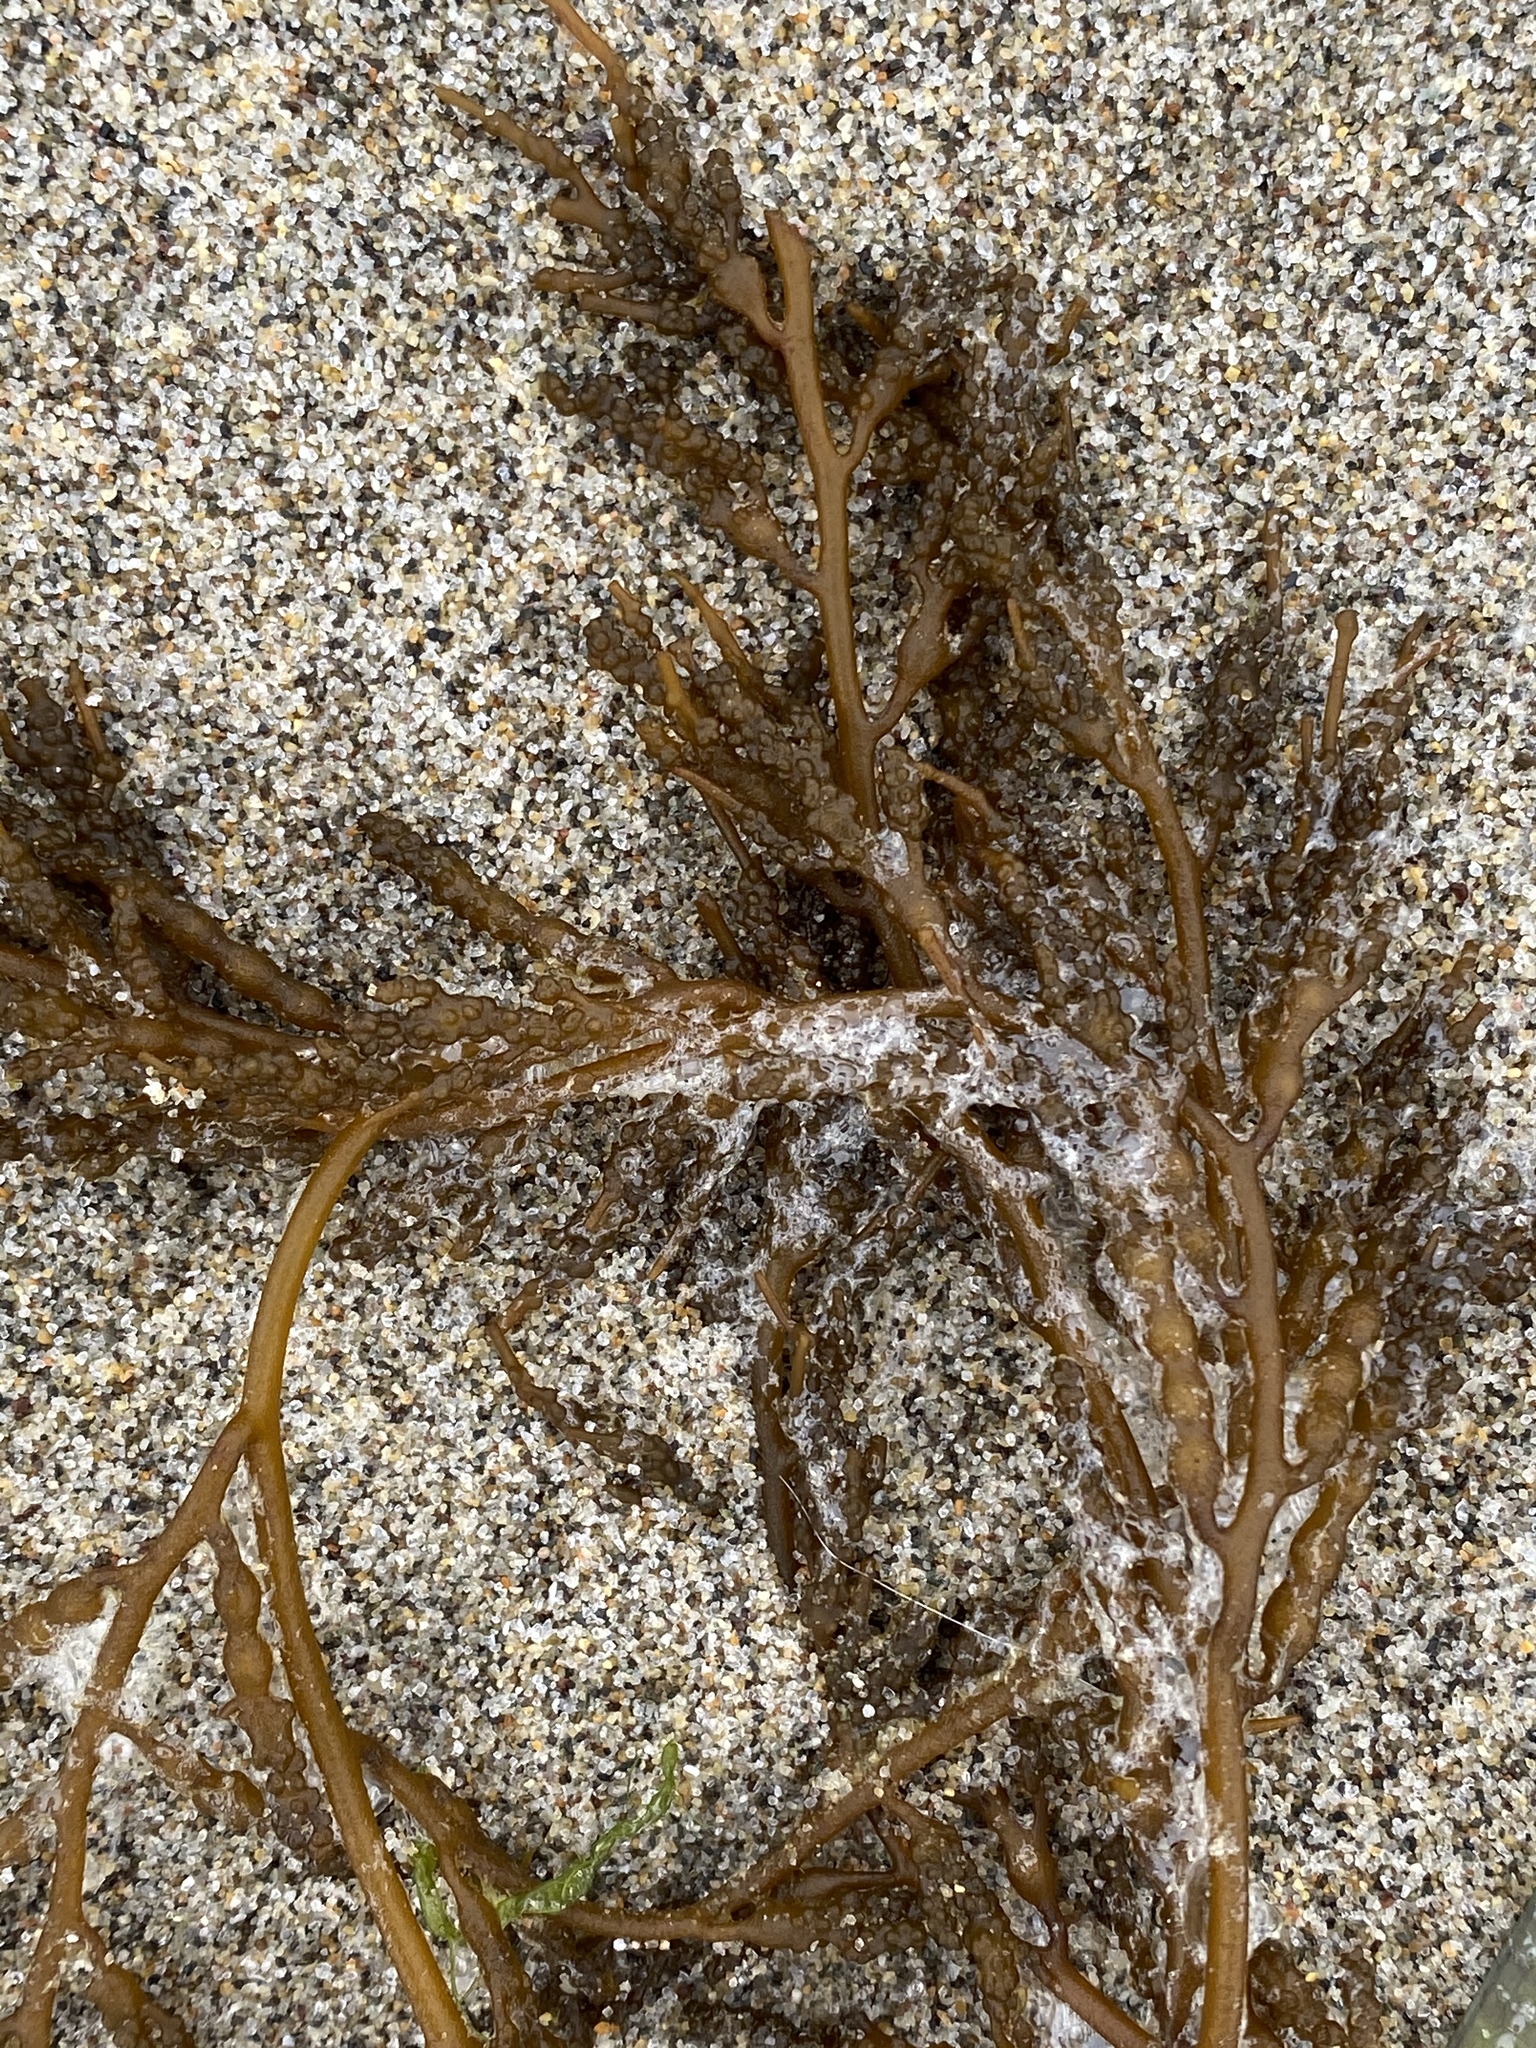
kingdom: Chromista
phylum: Ochrophyta
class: Phaeophyceae
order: Fucales
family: Sargassaceae
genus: Stephanocystis
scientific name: Stephanocystis
